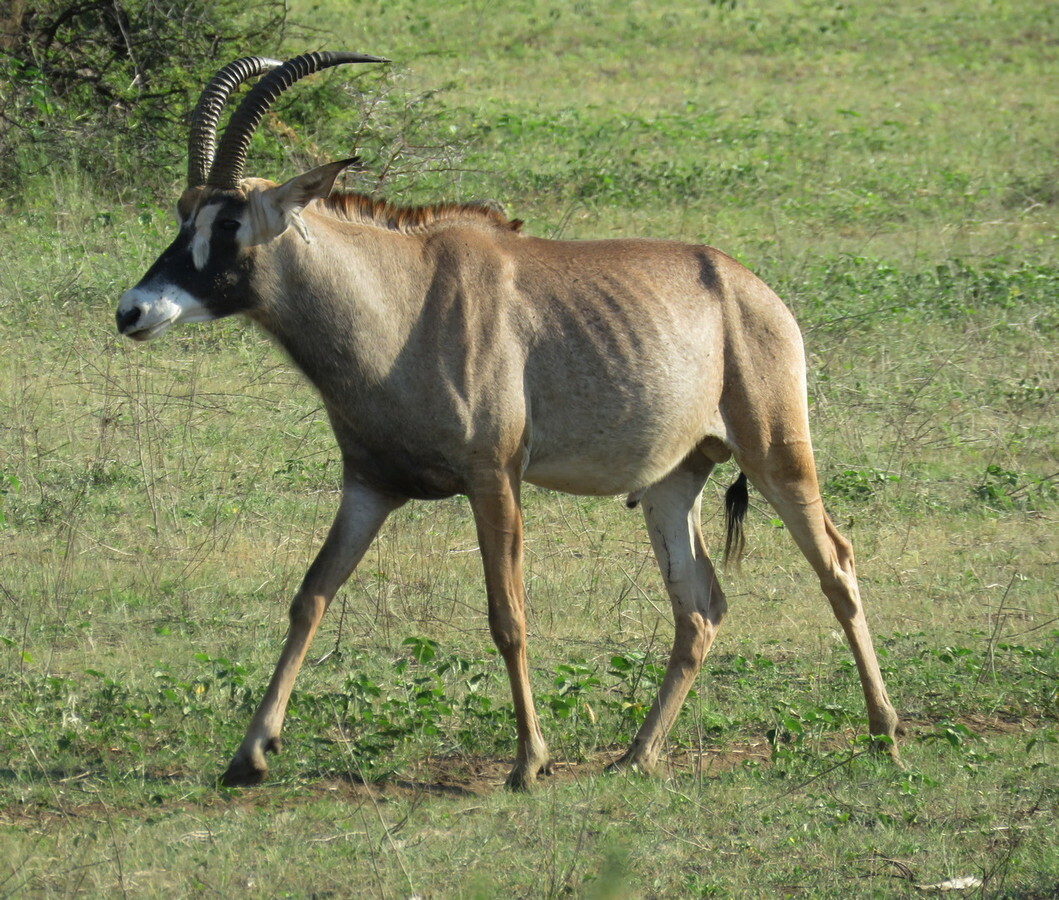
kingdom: Animalia
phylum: Chordata
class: Mammalia
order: Artiodactyla
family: Bovidae
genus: Hippotragus
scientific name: Hippotragus equinus
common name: Roan antelope
